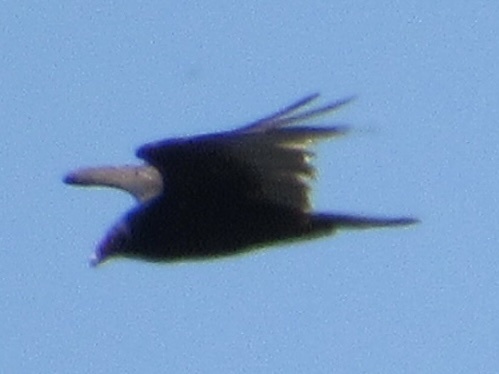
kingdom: Animalia
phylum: Chordata
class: Aves
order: Accipitriformes
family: Cathartidae
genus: Cathartes
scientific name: Cathartes aura
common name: Turkey vulture
